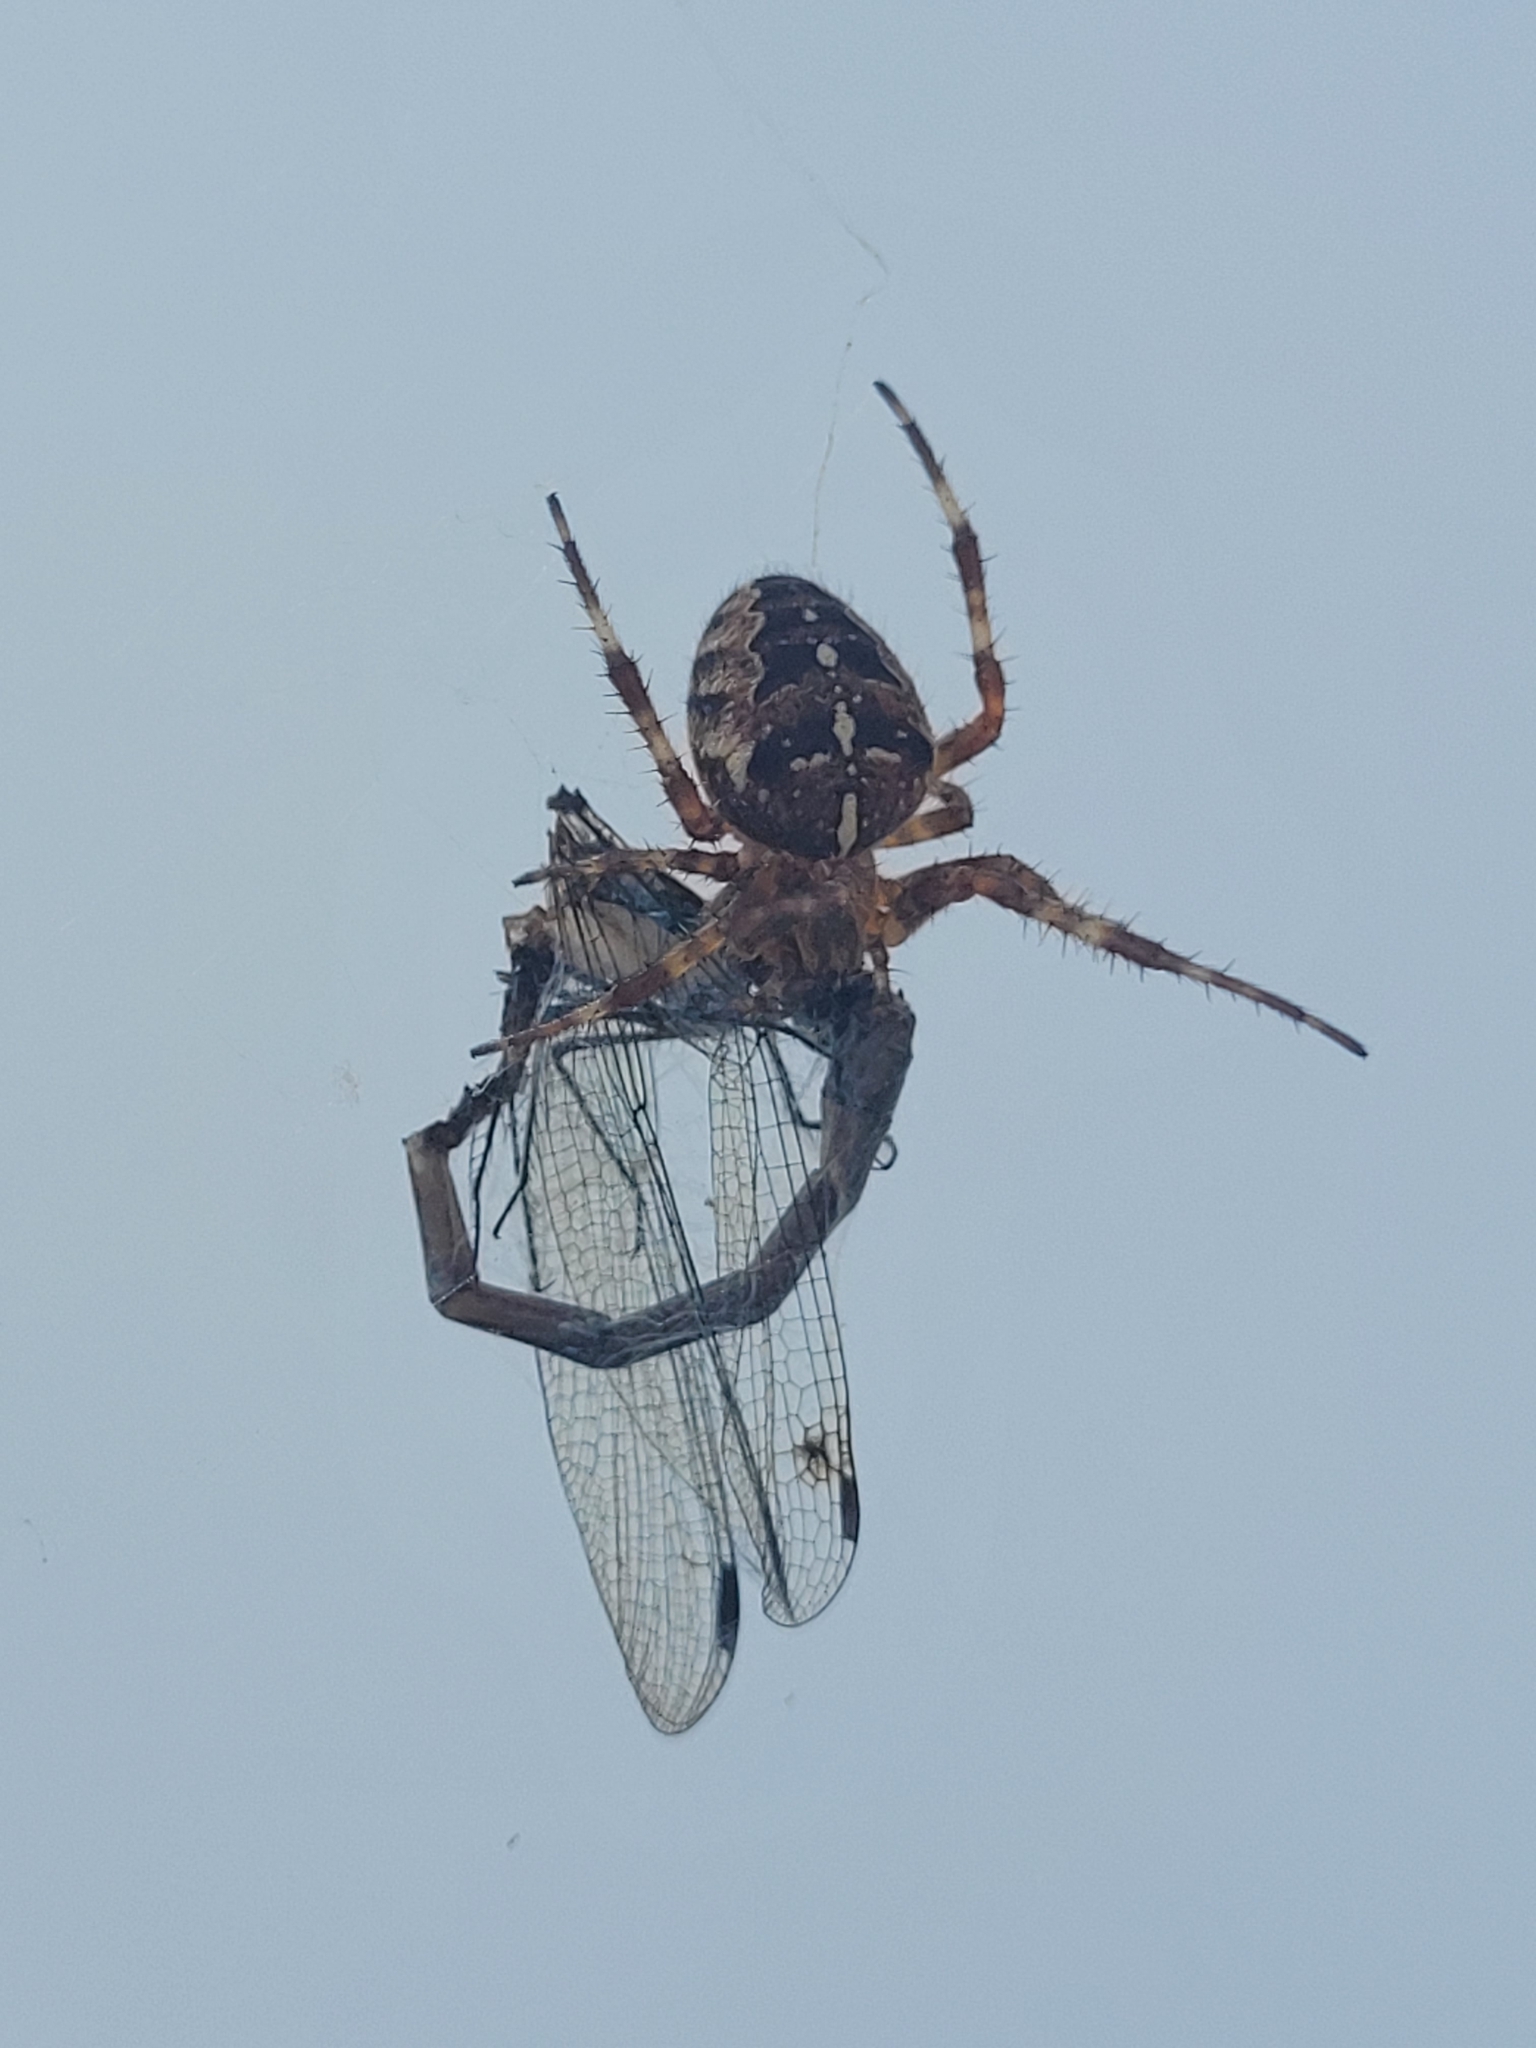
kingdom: Animalia
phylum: Arthropoda
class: Arachnida
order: Araneae
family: Araneidae
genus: Araneus
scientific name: Araneus diadematus
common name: Cross orbweaver
